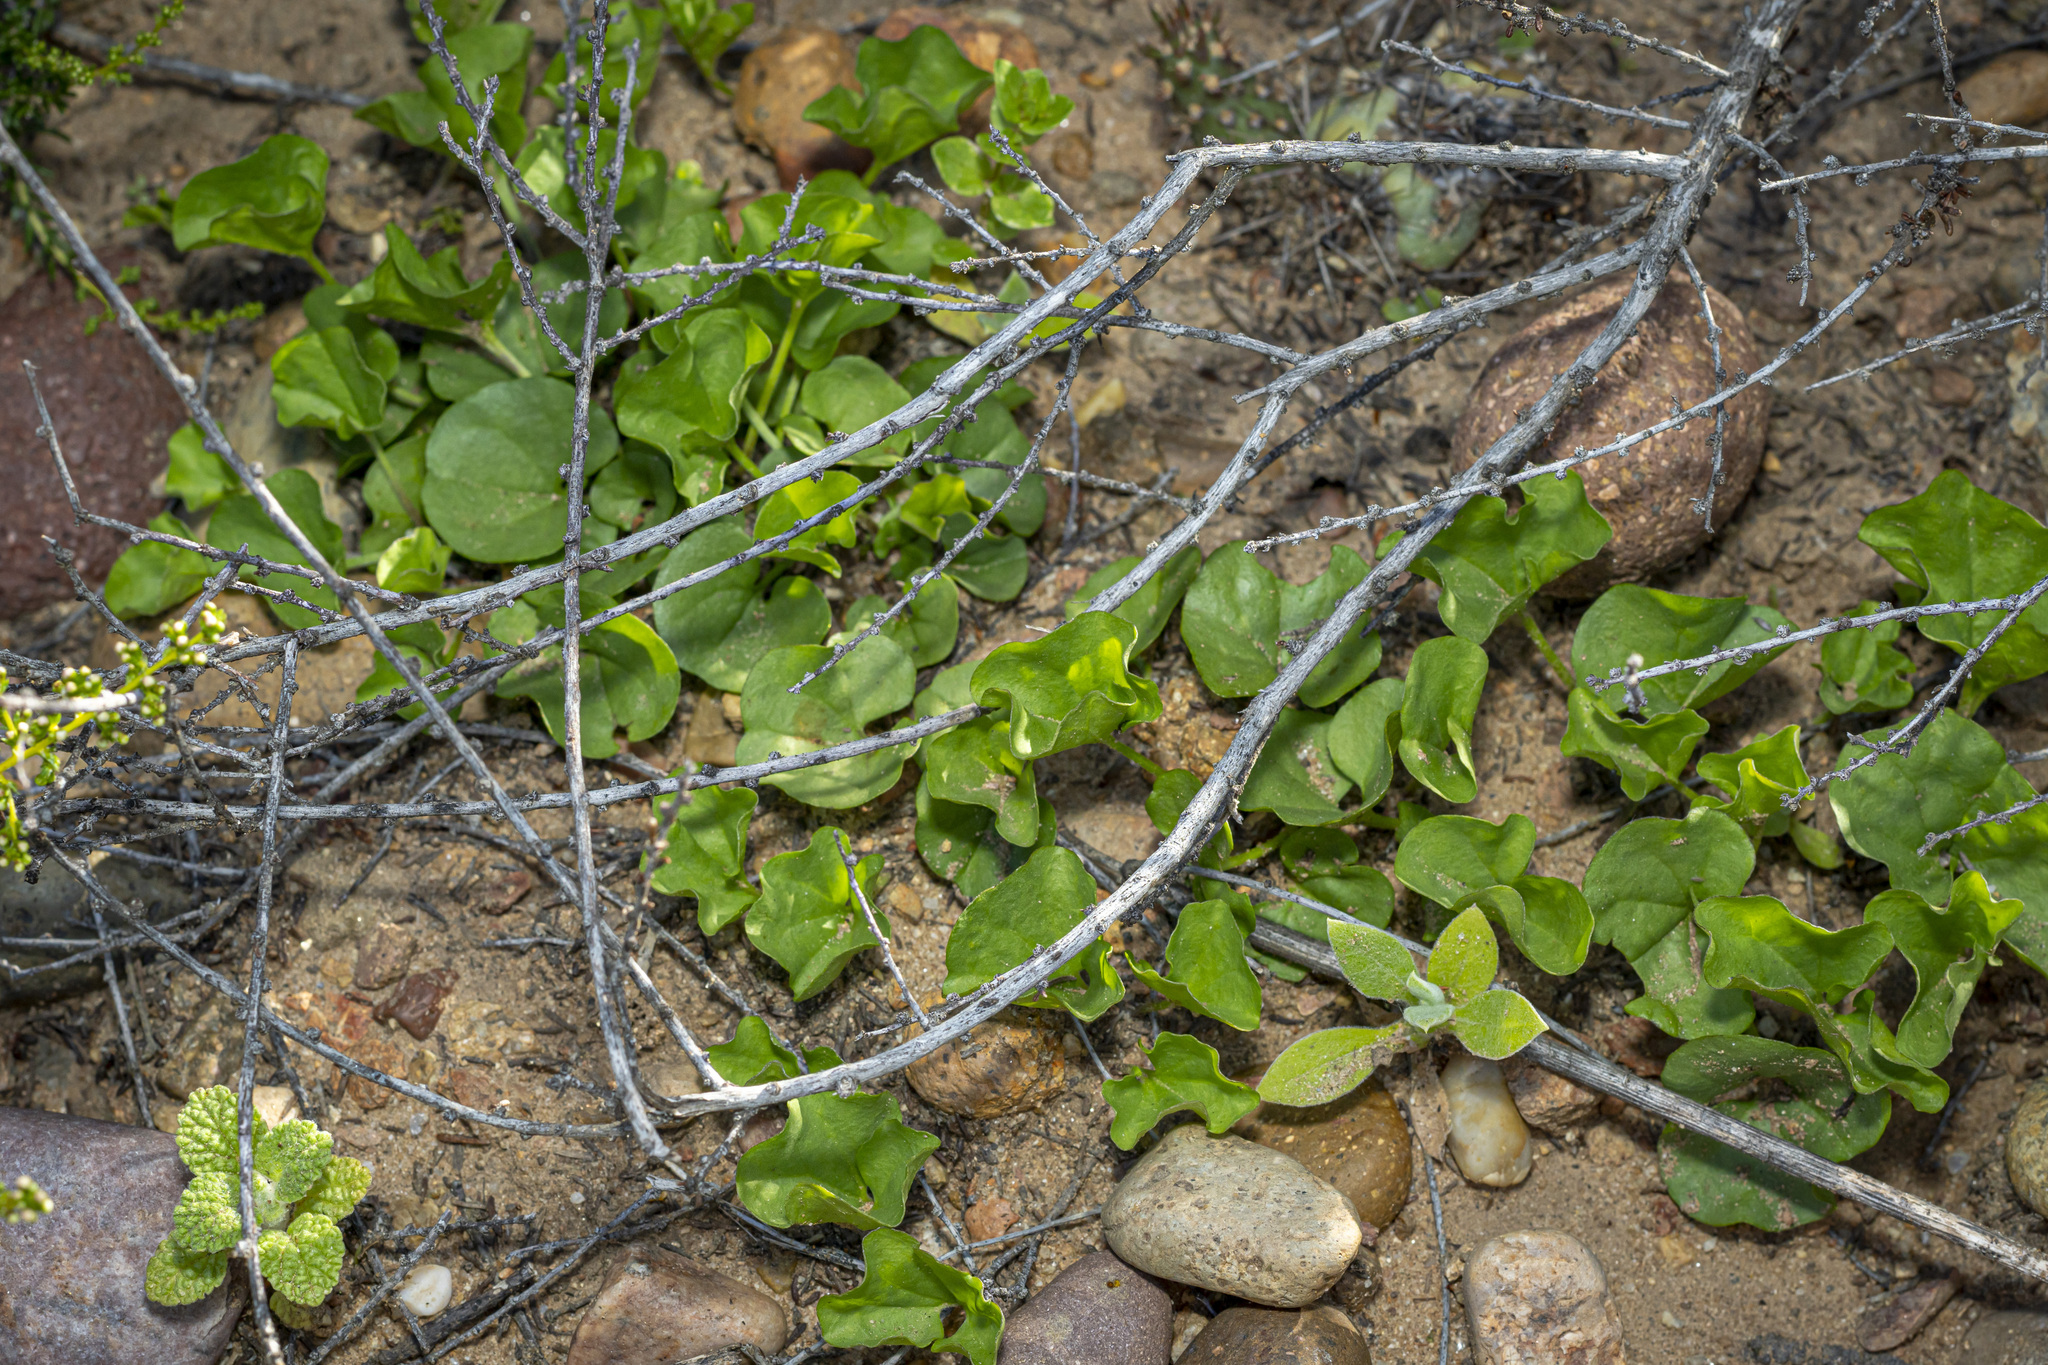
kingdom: Plantae
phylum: Tracheophyta
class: Magnoliopsida
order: Solanales
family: Convolvulaceae
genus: Dichondra
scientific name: Dichondra occidentalis
